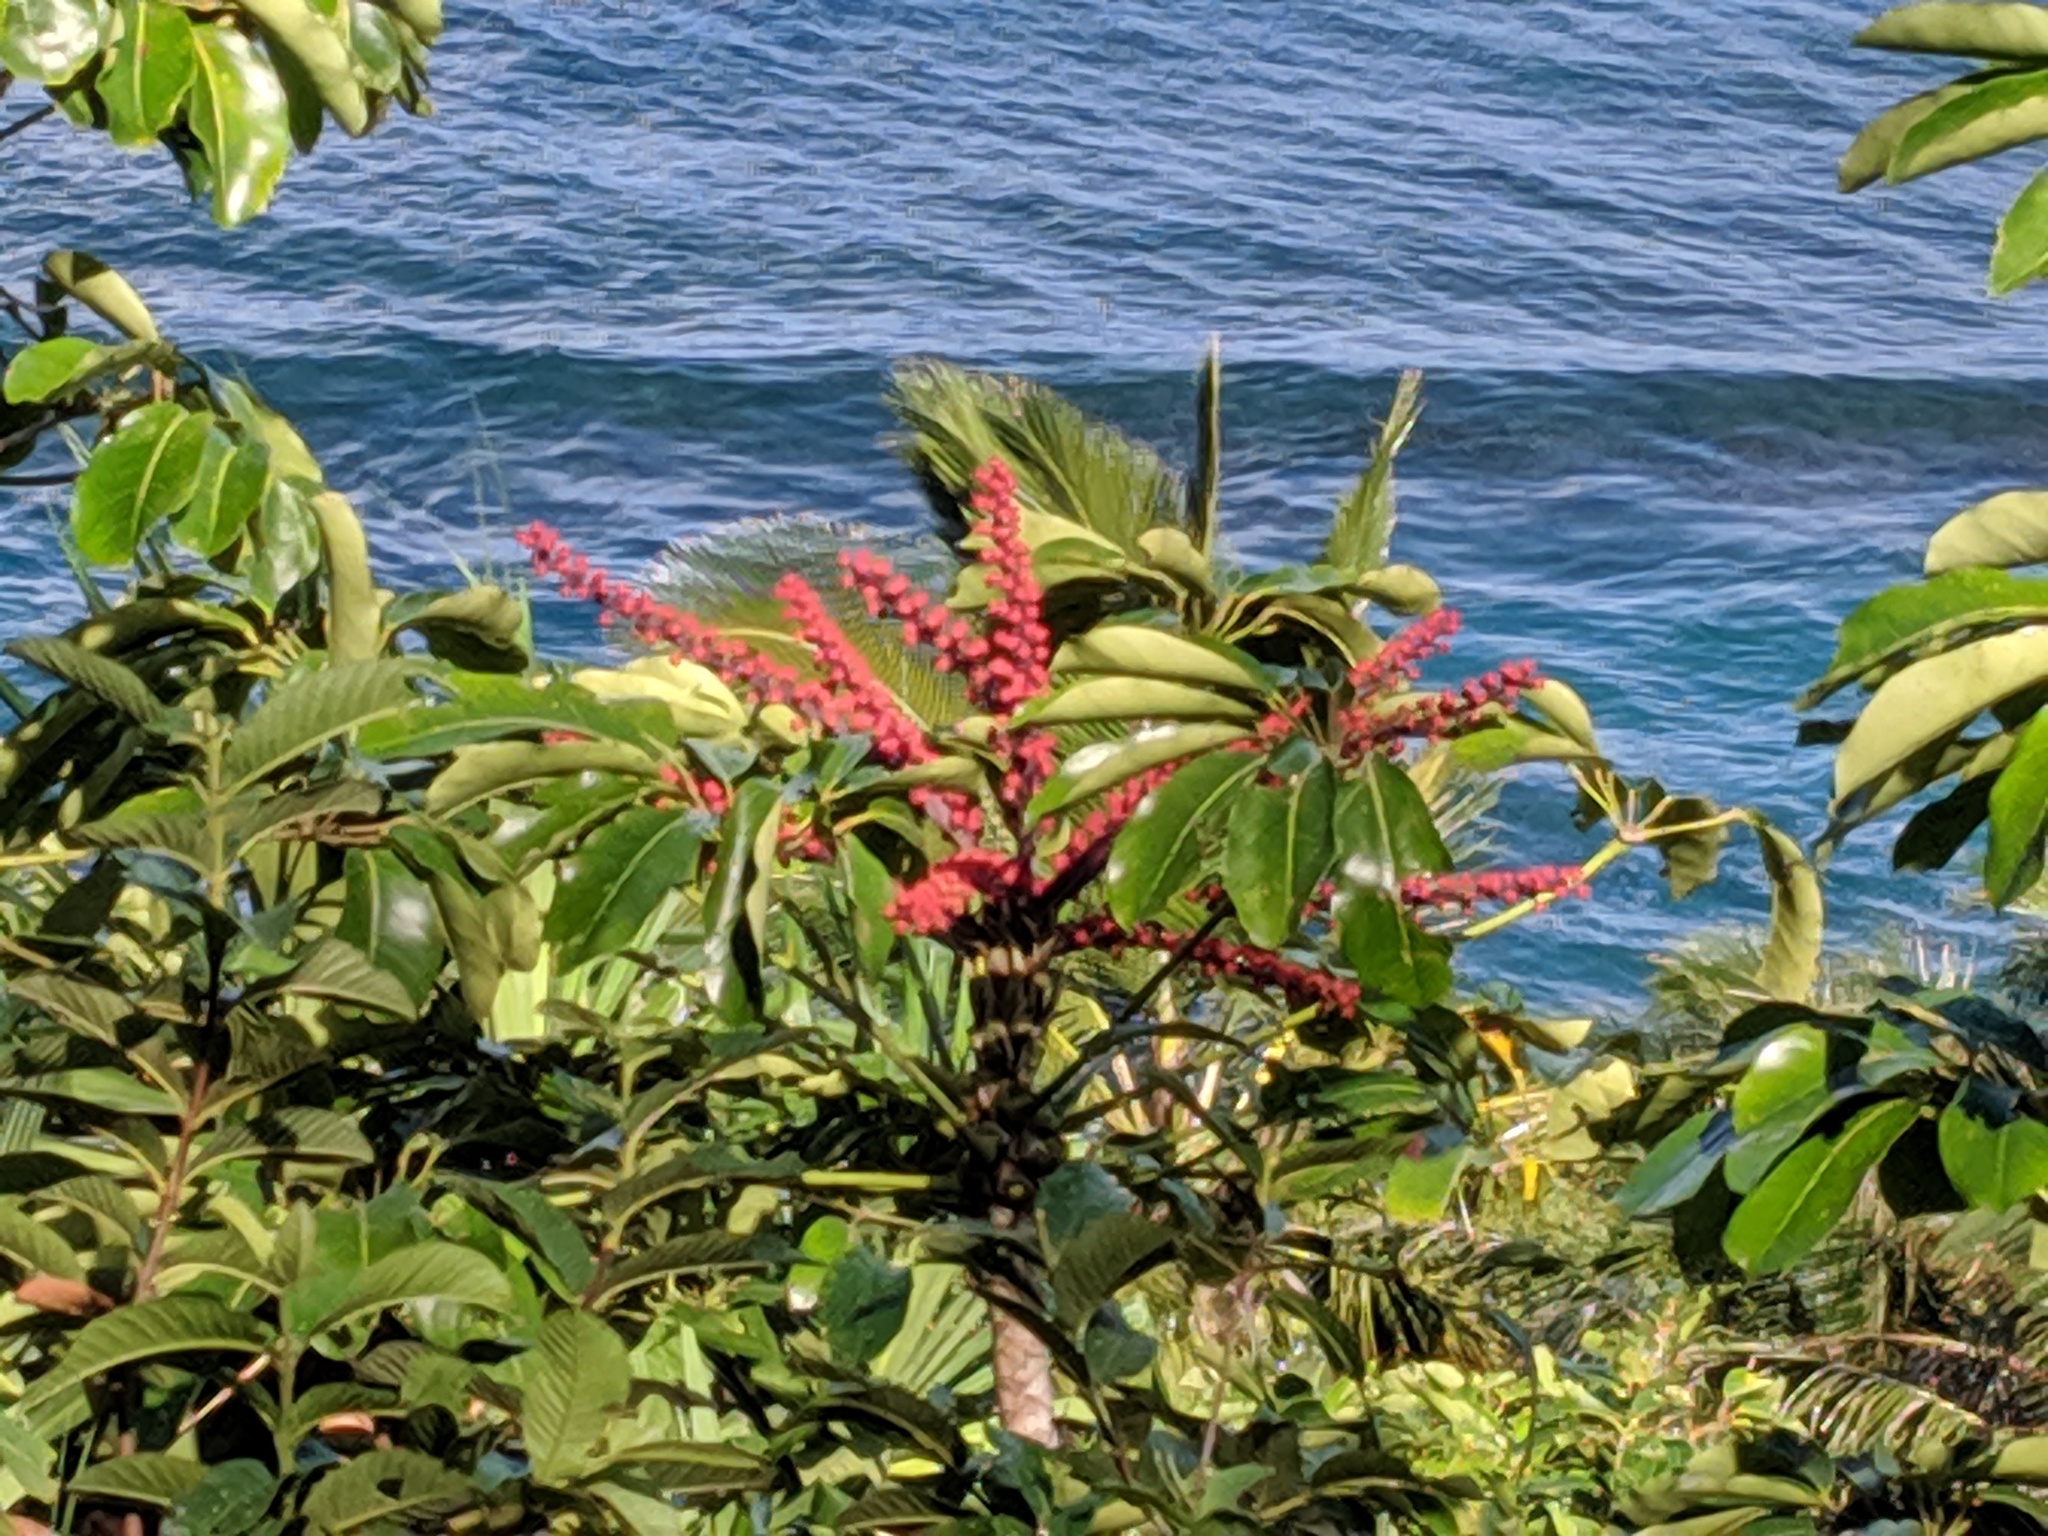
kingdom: Plantae
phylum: Tracheophyta
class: Magnoliopsida
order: Apiales
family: Araliaceae
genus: Heptapleurum
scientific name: Heptapleurum actinophyllum
